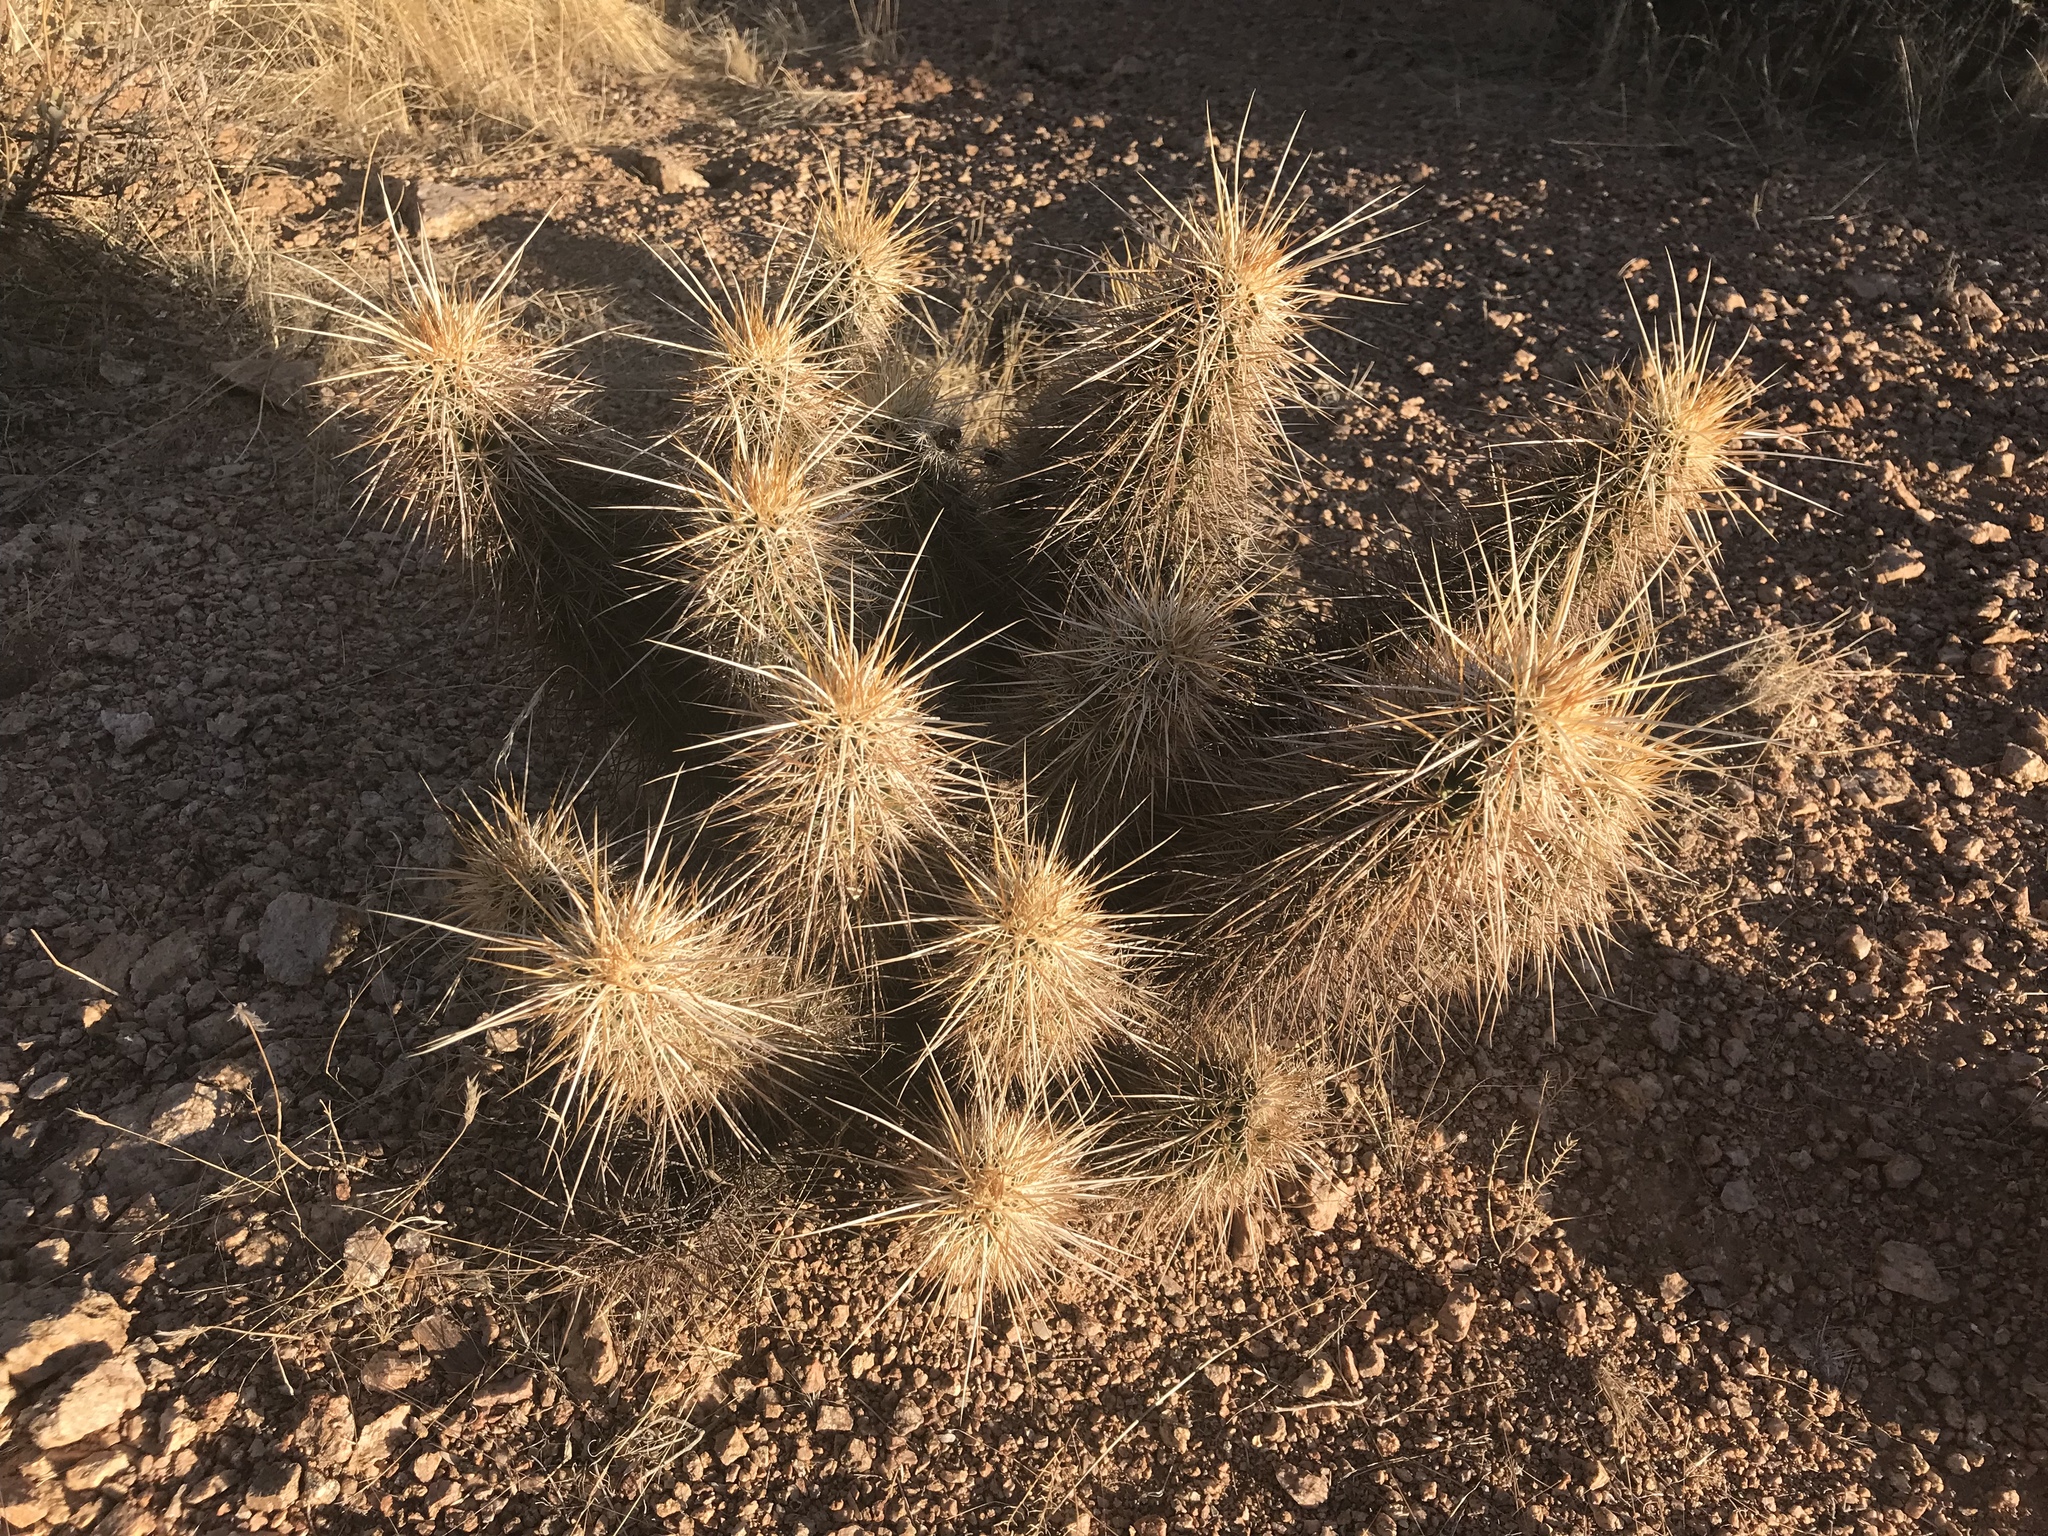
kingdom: Plantae
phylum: Tracheophyta
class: Magnoliopsida
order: Caryophyllales
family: Cactaceae
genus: Echinocereus
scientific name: Echinocereus engelmannii
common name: Engelmann's hedgehog cactus
